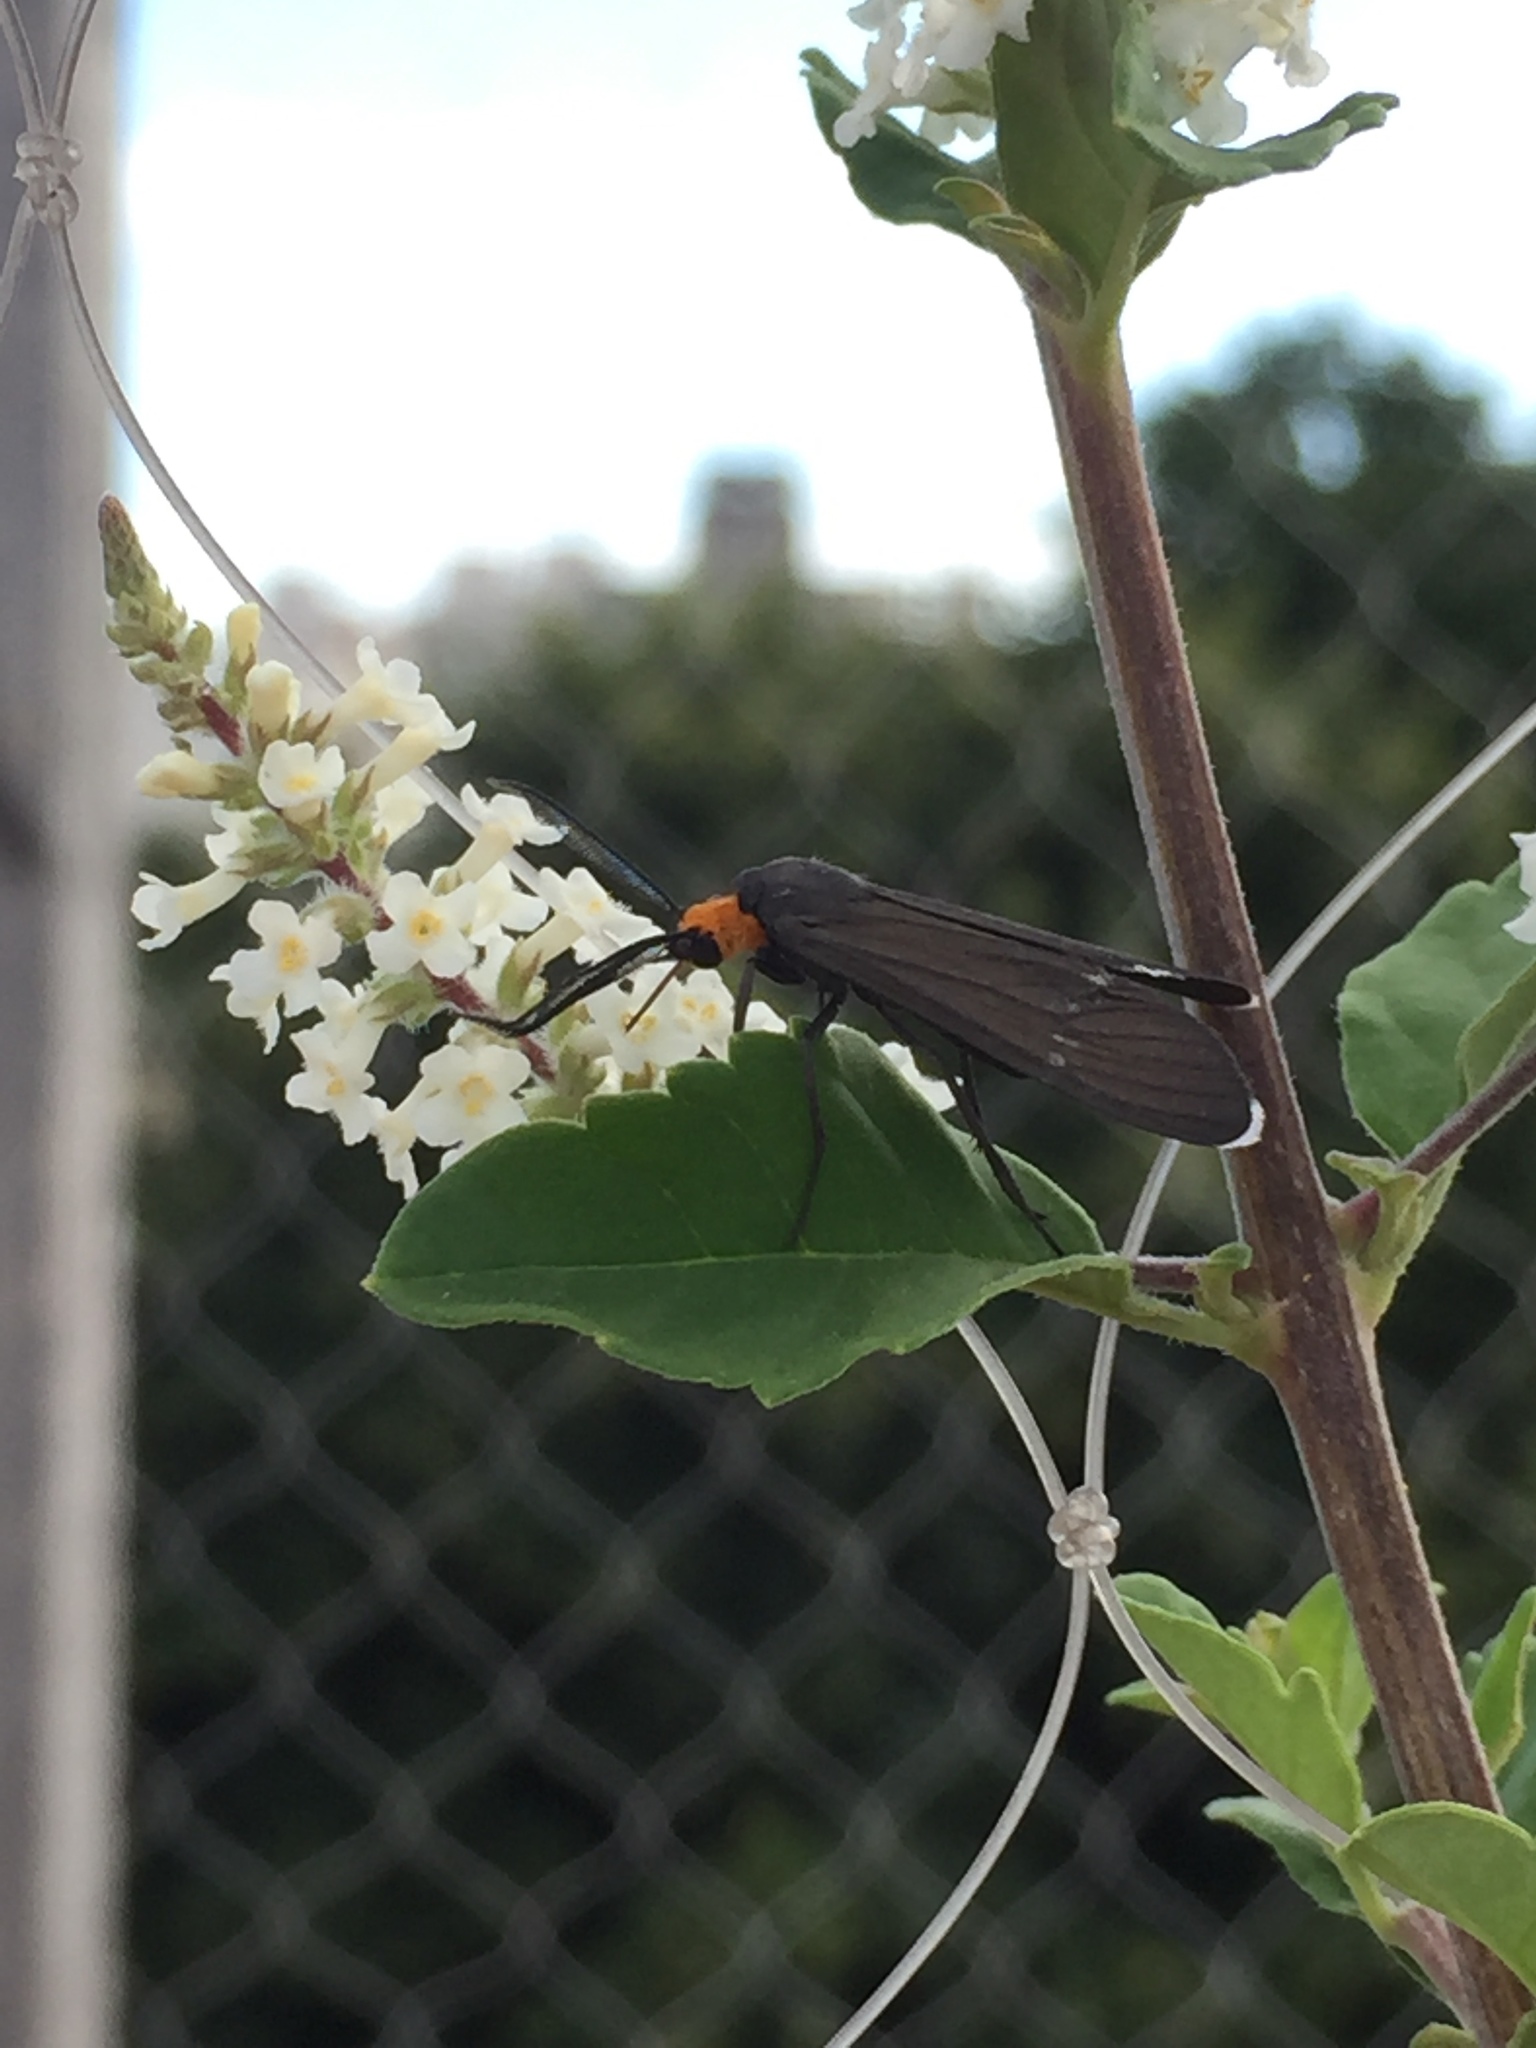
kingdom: Animalia
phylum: Arthropoda
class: Insecta
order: Lepidoptera
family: Erebidae
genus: Ctenucha
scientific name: Ctenucha rubriceps
